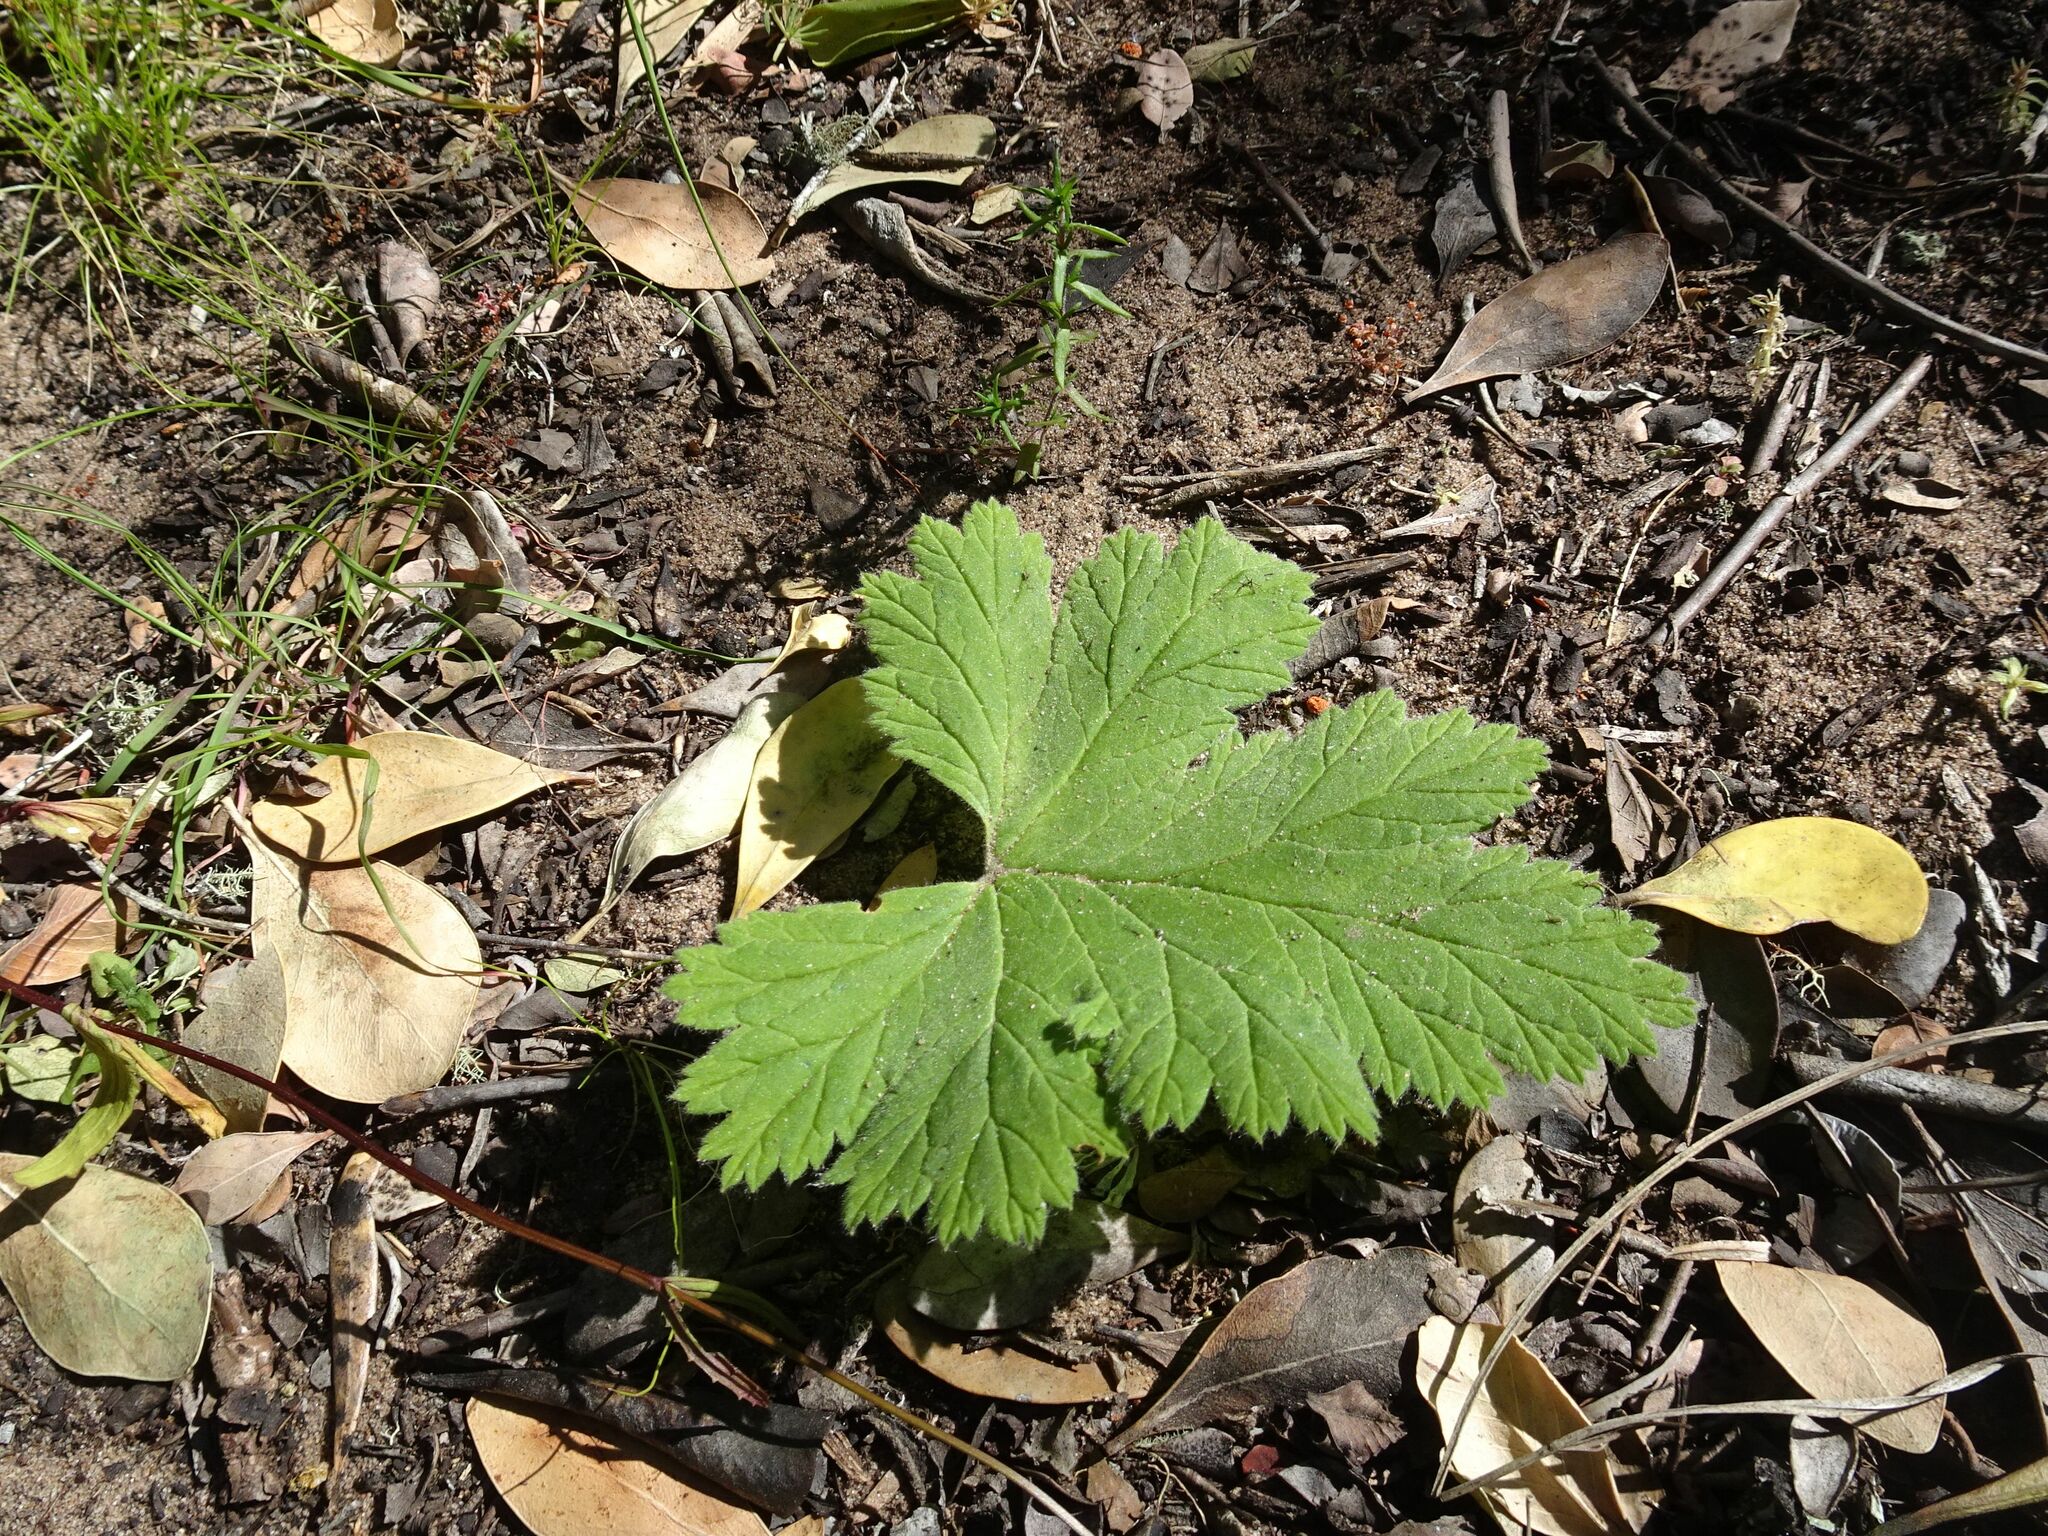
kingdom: Plantae
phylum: Tracheophyta
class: Magnoliopsida
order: Geraniales
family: Geraniaceae
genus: Pelargonium
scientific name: Pelargonium lobatum
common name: Vine-leaf pelargonium
